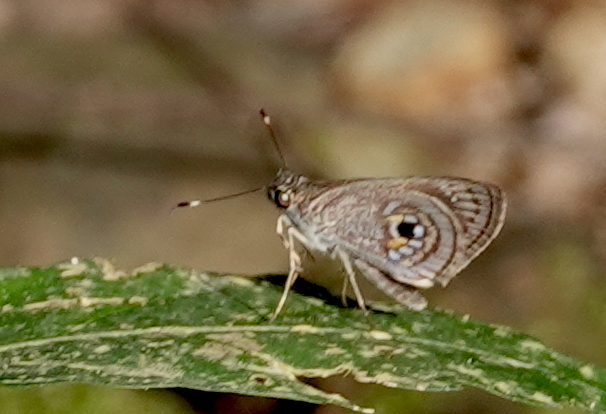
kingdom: Animalia
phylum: Arthropoda
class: Insecta
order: Lepidoptera
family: Hesperiidae
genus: Artines
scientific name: Artines rica
